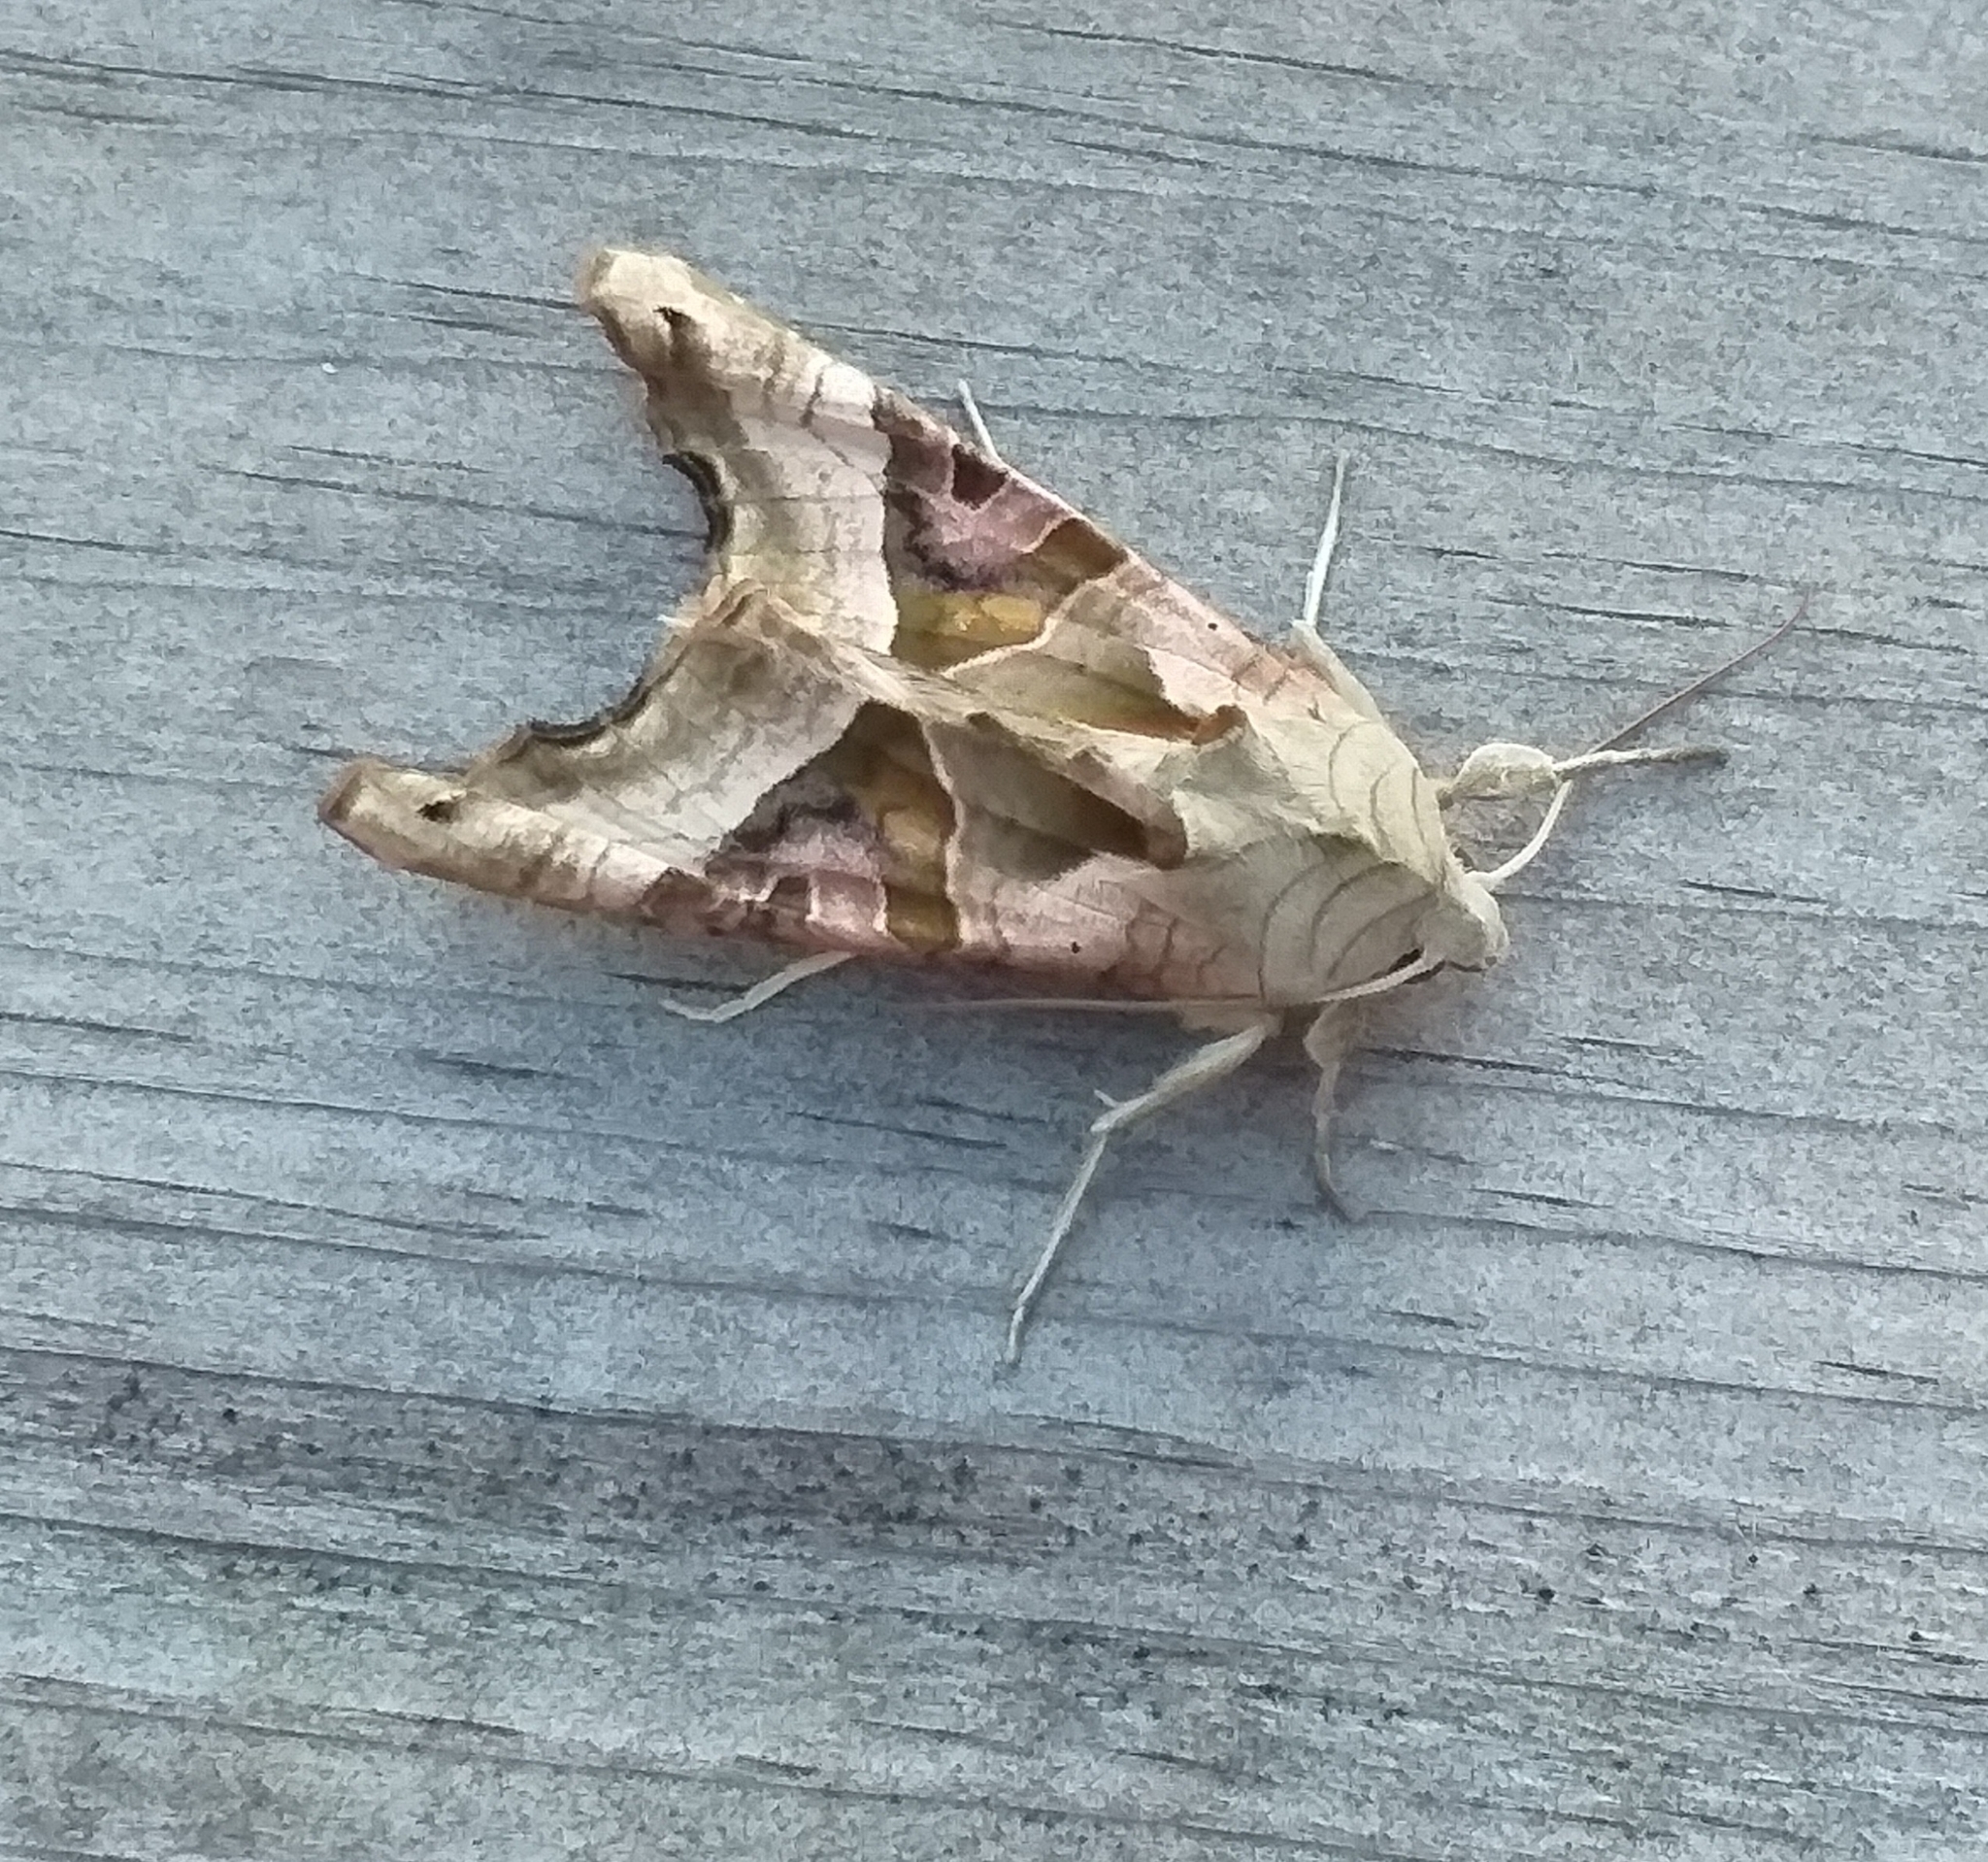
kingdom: Animalia
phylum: Arthropoda
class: Insecta
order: Lepidoptera
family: Noctuidae
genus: Phlogophora
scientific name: Phlogophora meticulosa
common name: Angle shades
